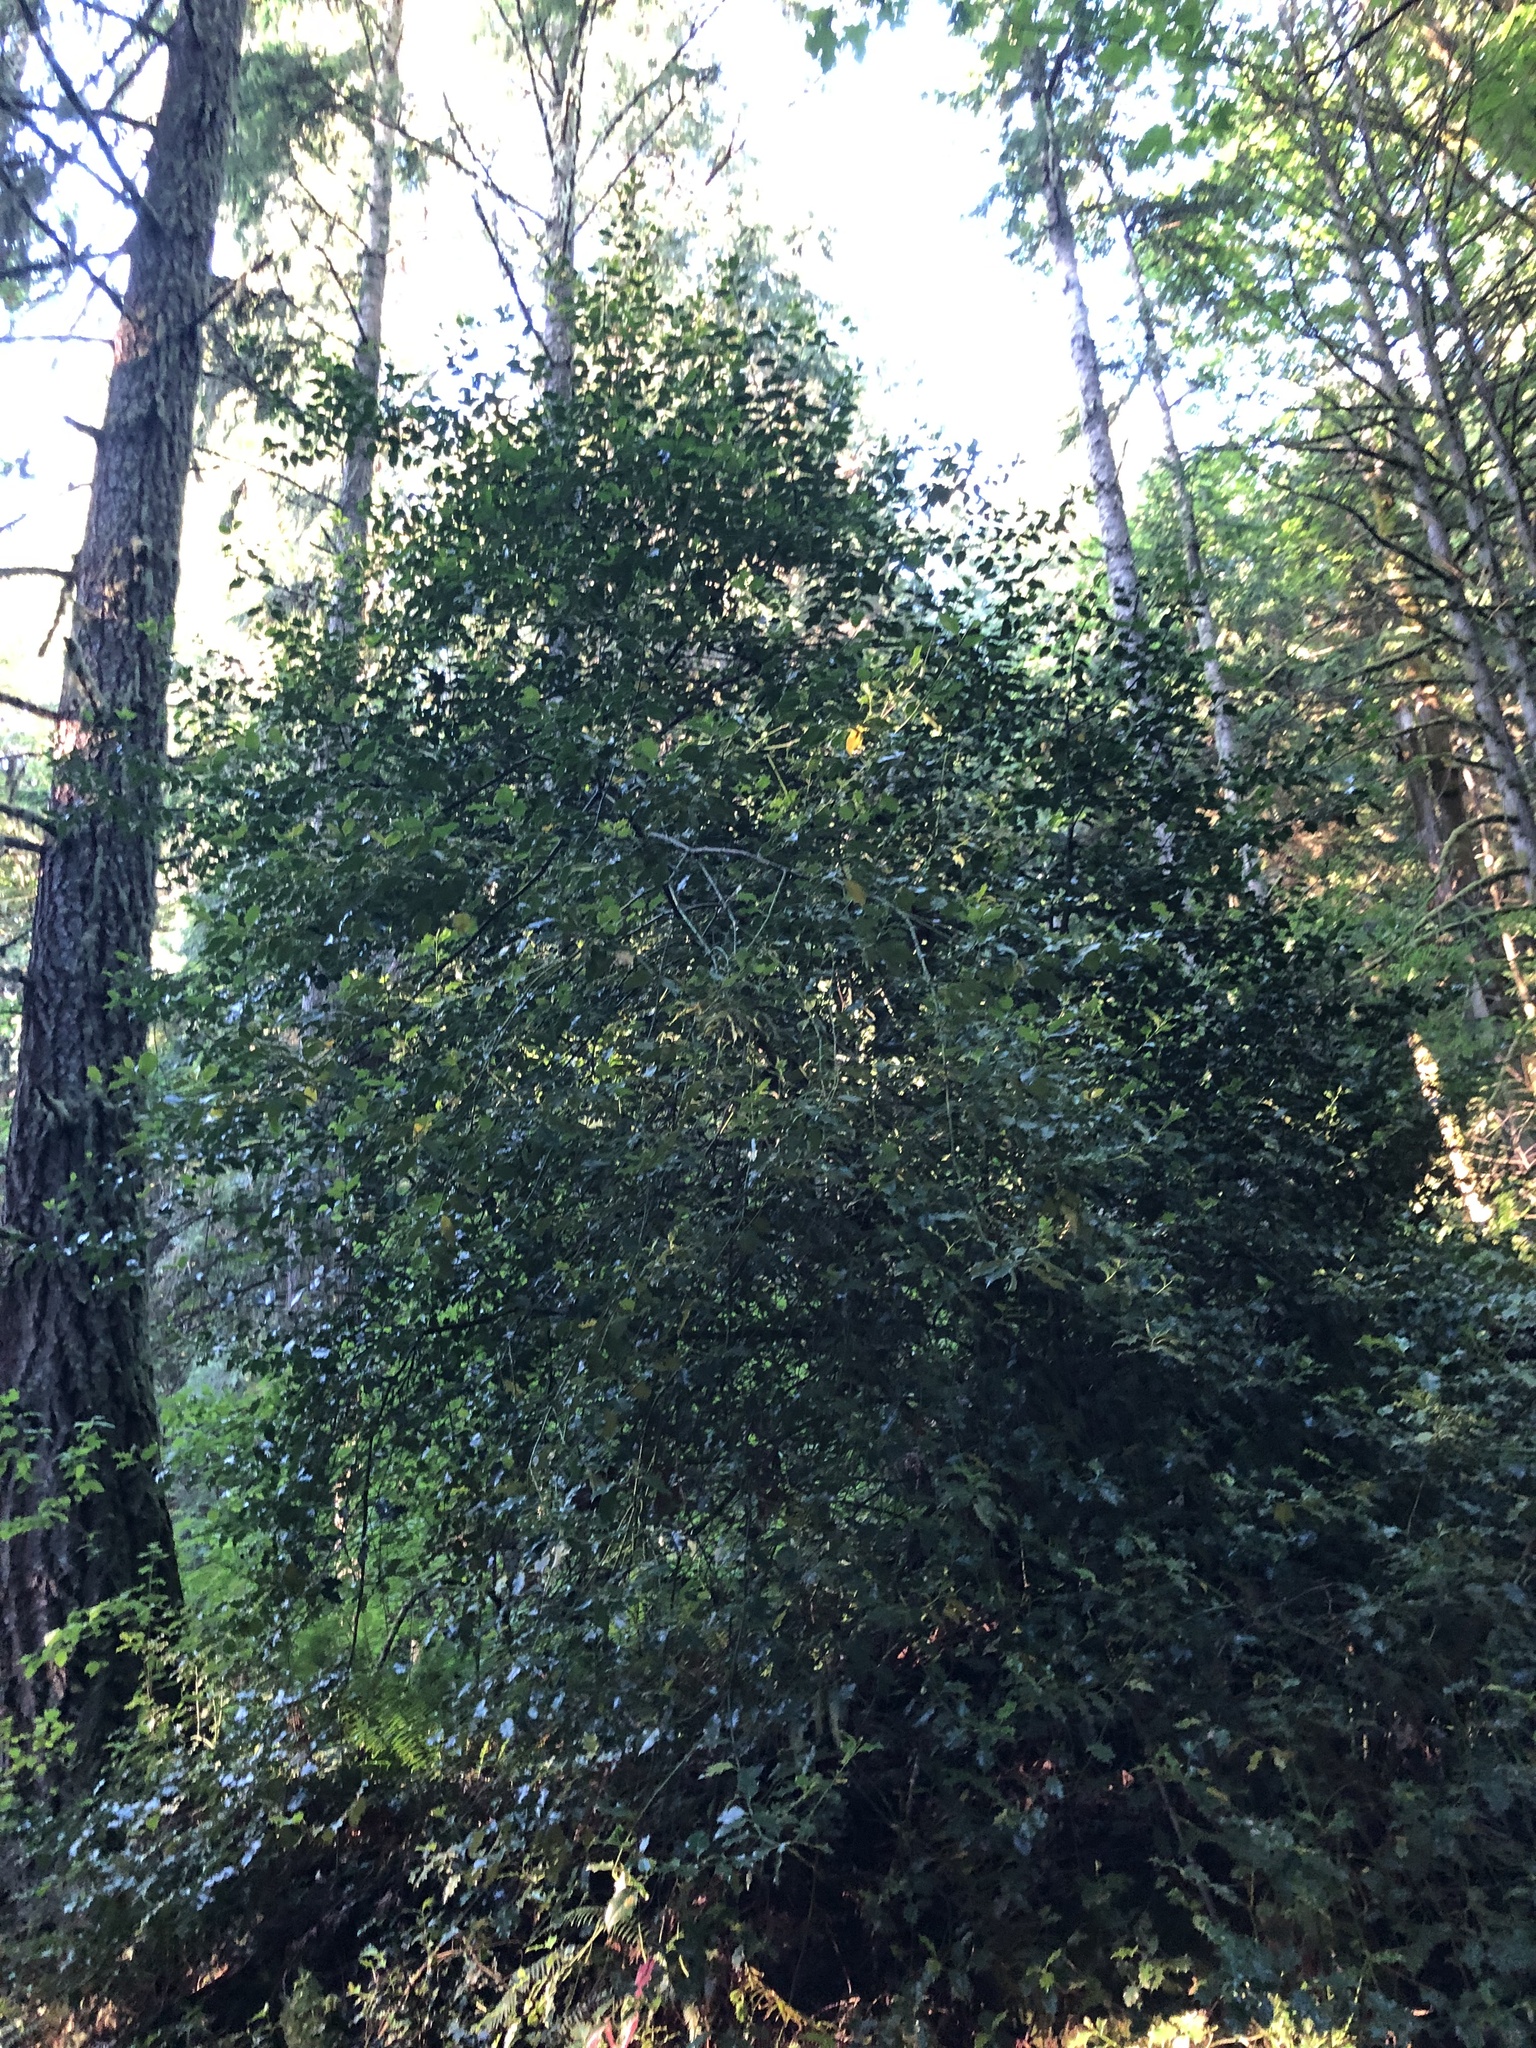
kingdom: Plantae
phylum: Tracheophyta
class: Magnoliopsida
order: Aquifoliales
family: Aquifoliaceae
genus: Ilex
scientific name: Ilex aquifolium
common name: English holly
